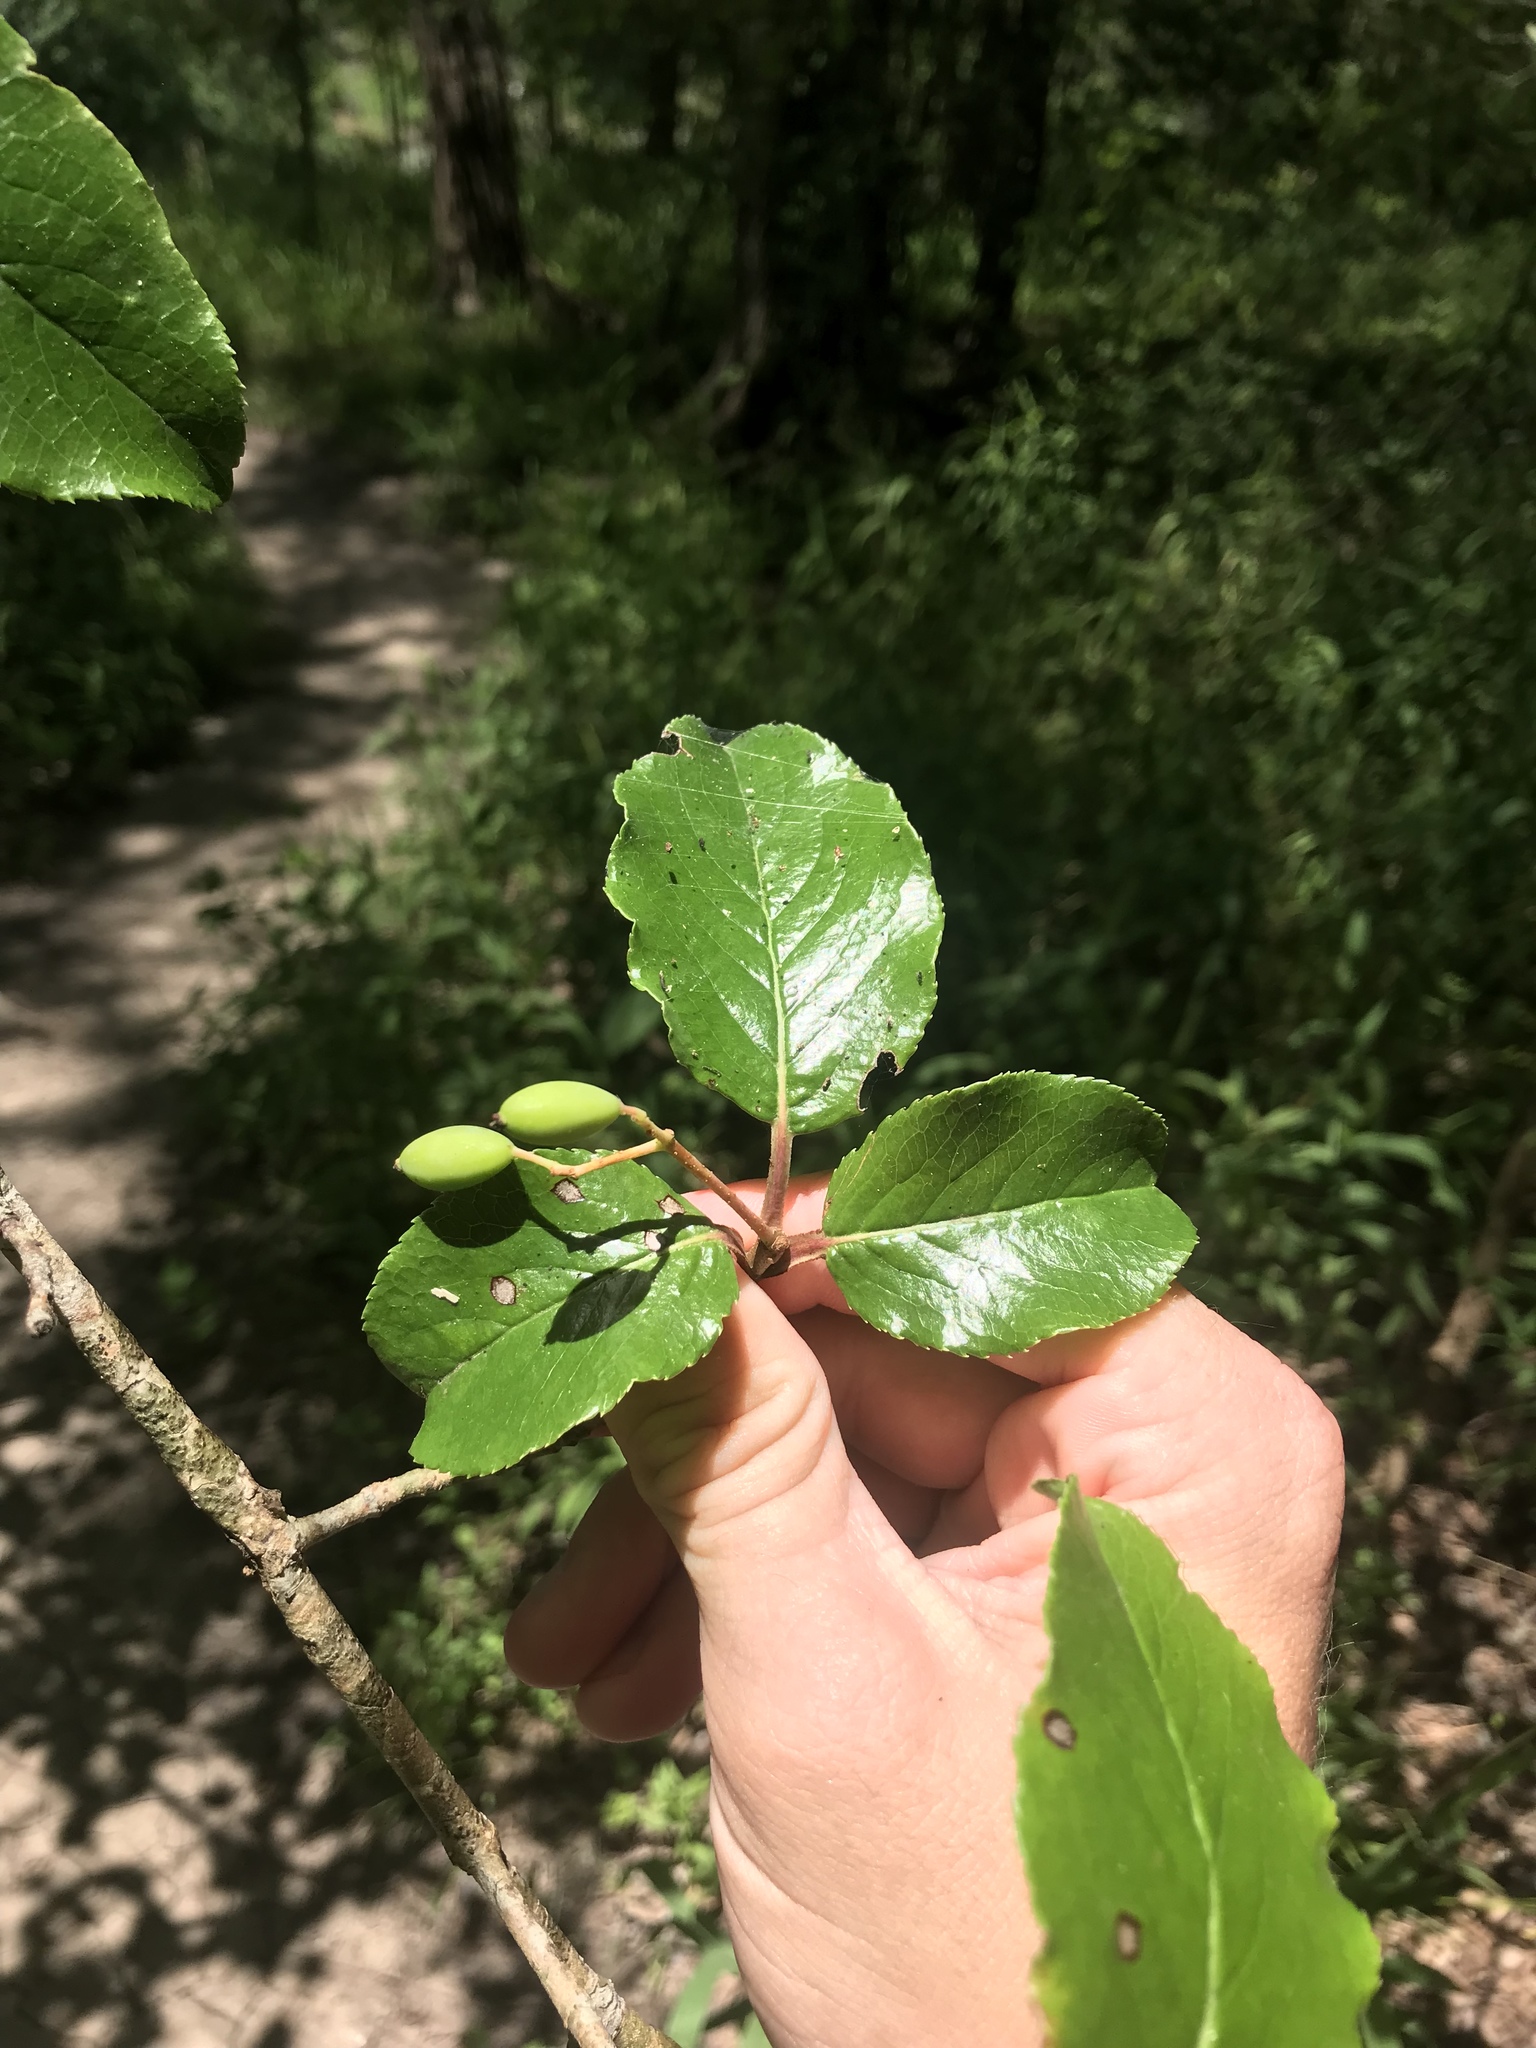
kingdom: Plantae
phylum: Tracheophyta
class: Magnoliopsida
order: Dipsacales
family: Viburnaceae
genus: Viburnum
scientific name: Viburnum rufidulum
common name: Blue haw
